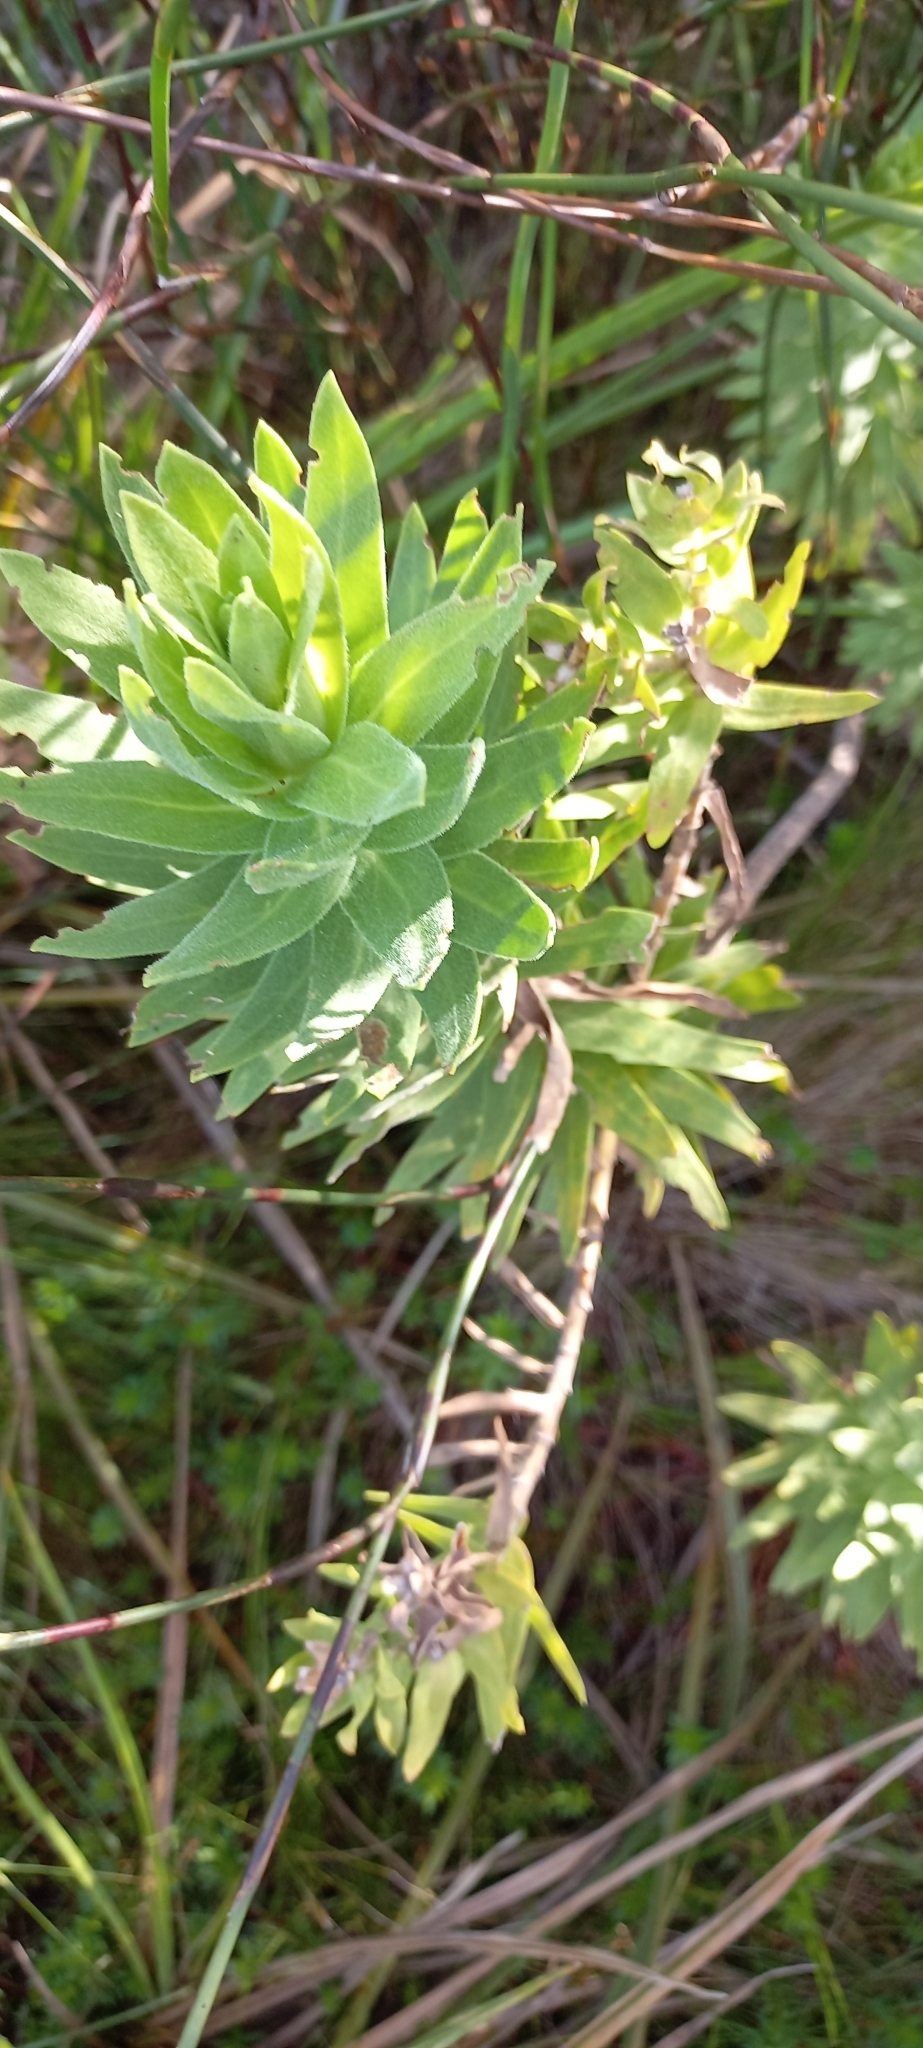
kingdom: Plantae
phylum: Tracheophyta
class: Magnoliopsida
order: Asterales
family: Asteraceae
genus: Osmitopsis
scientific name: Osmitopsis asteriscoides
